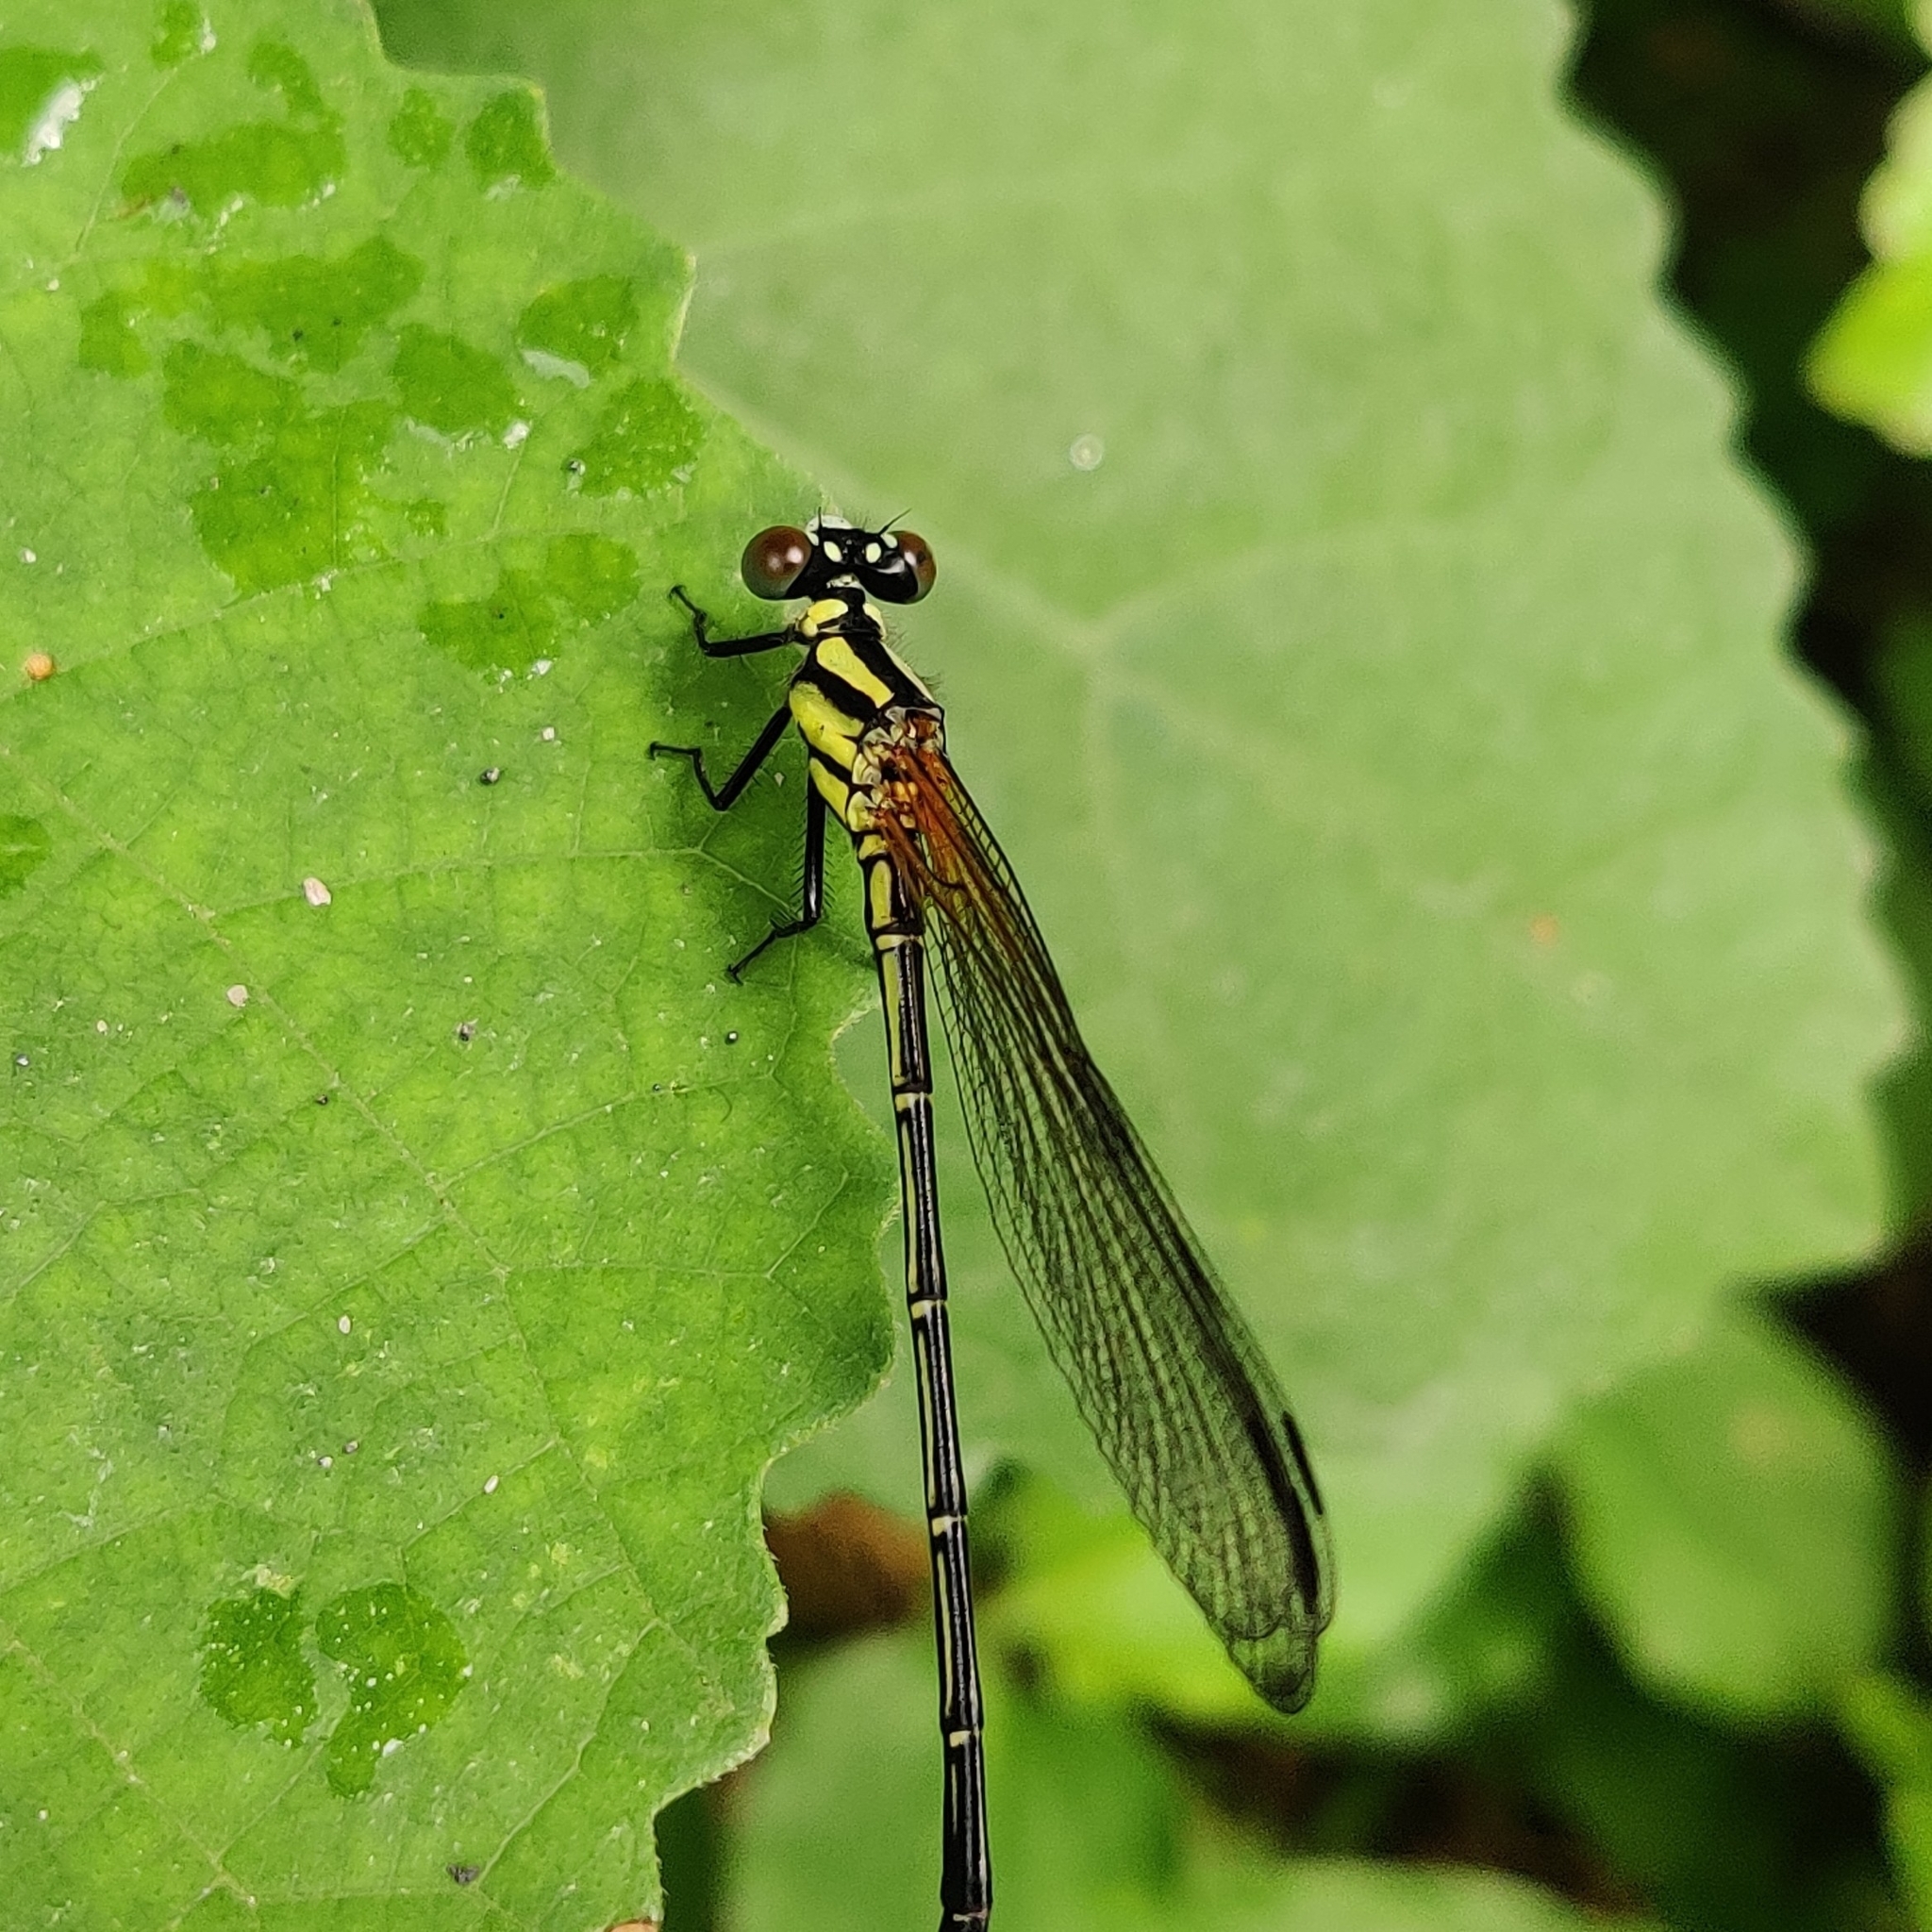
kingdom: Animalia
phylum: Arthropoda
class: Insecta
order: Odonata
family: Euphaeidae
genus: Anisopleura
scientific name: Anisopleura lestoides
